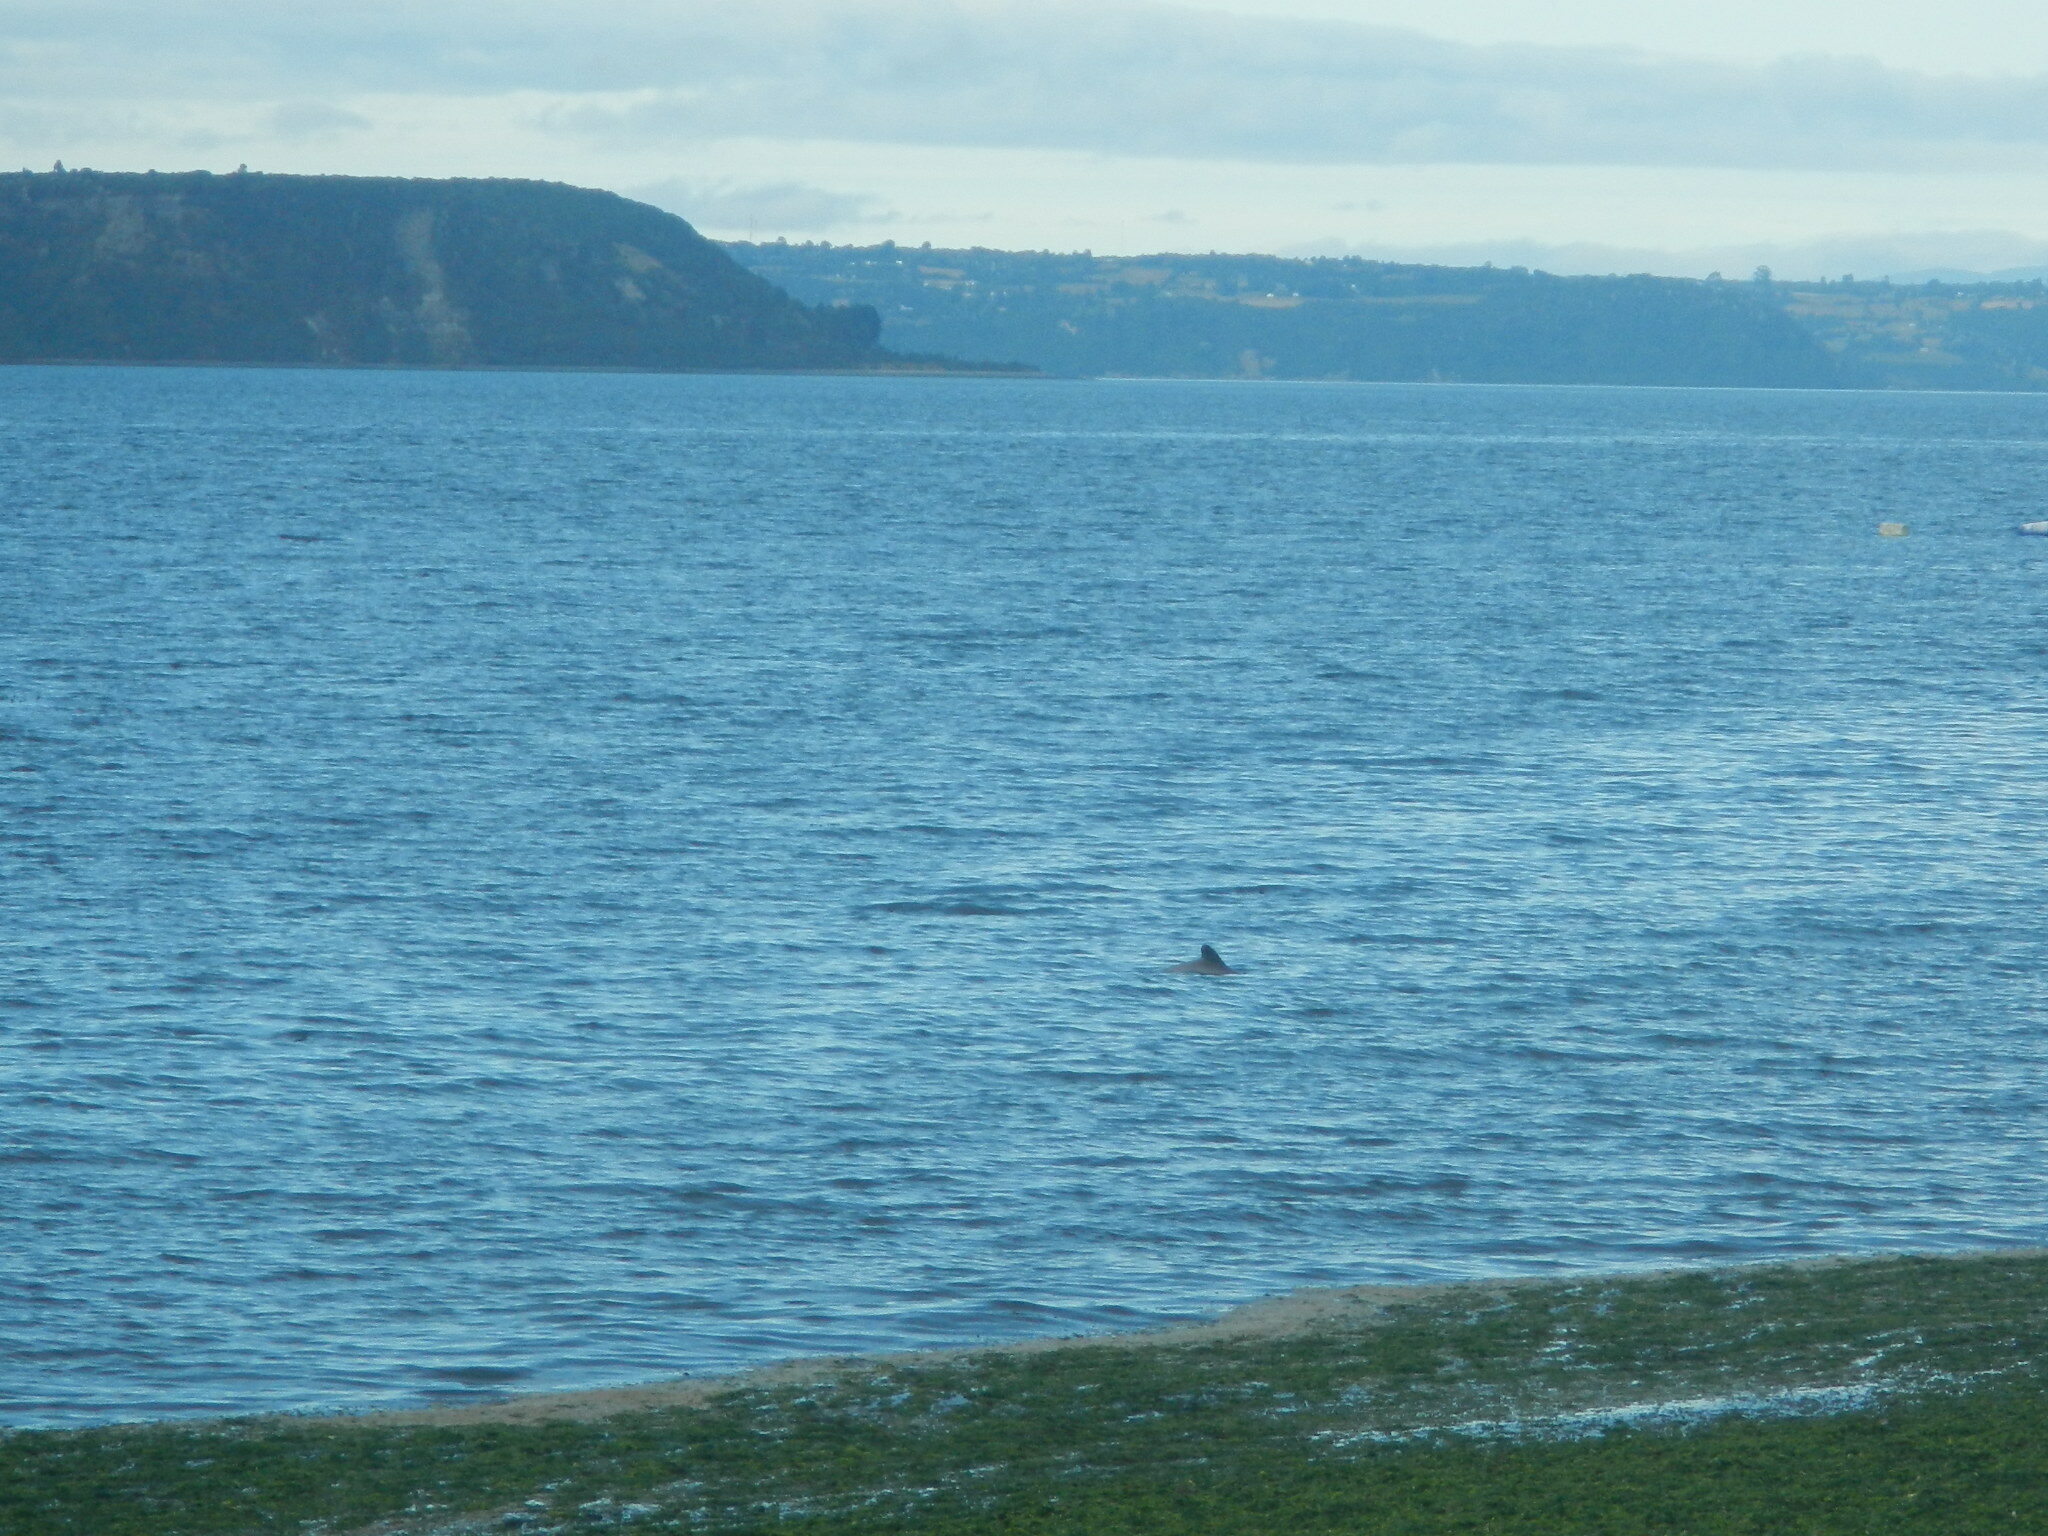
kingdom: Animalia
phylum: Chordata
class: Mammalia
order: Cetacea
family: Delphinidae
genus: Cephalorhynchus
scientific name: Cephalorhynchus eutropia
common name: Chilean dolphin
